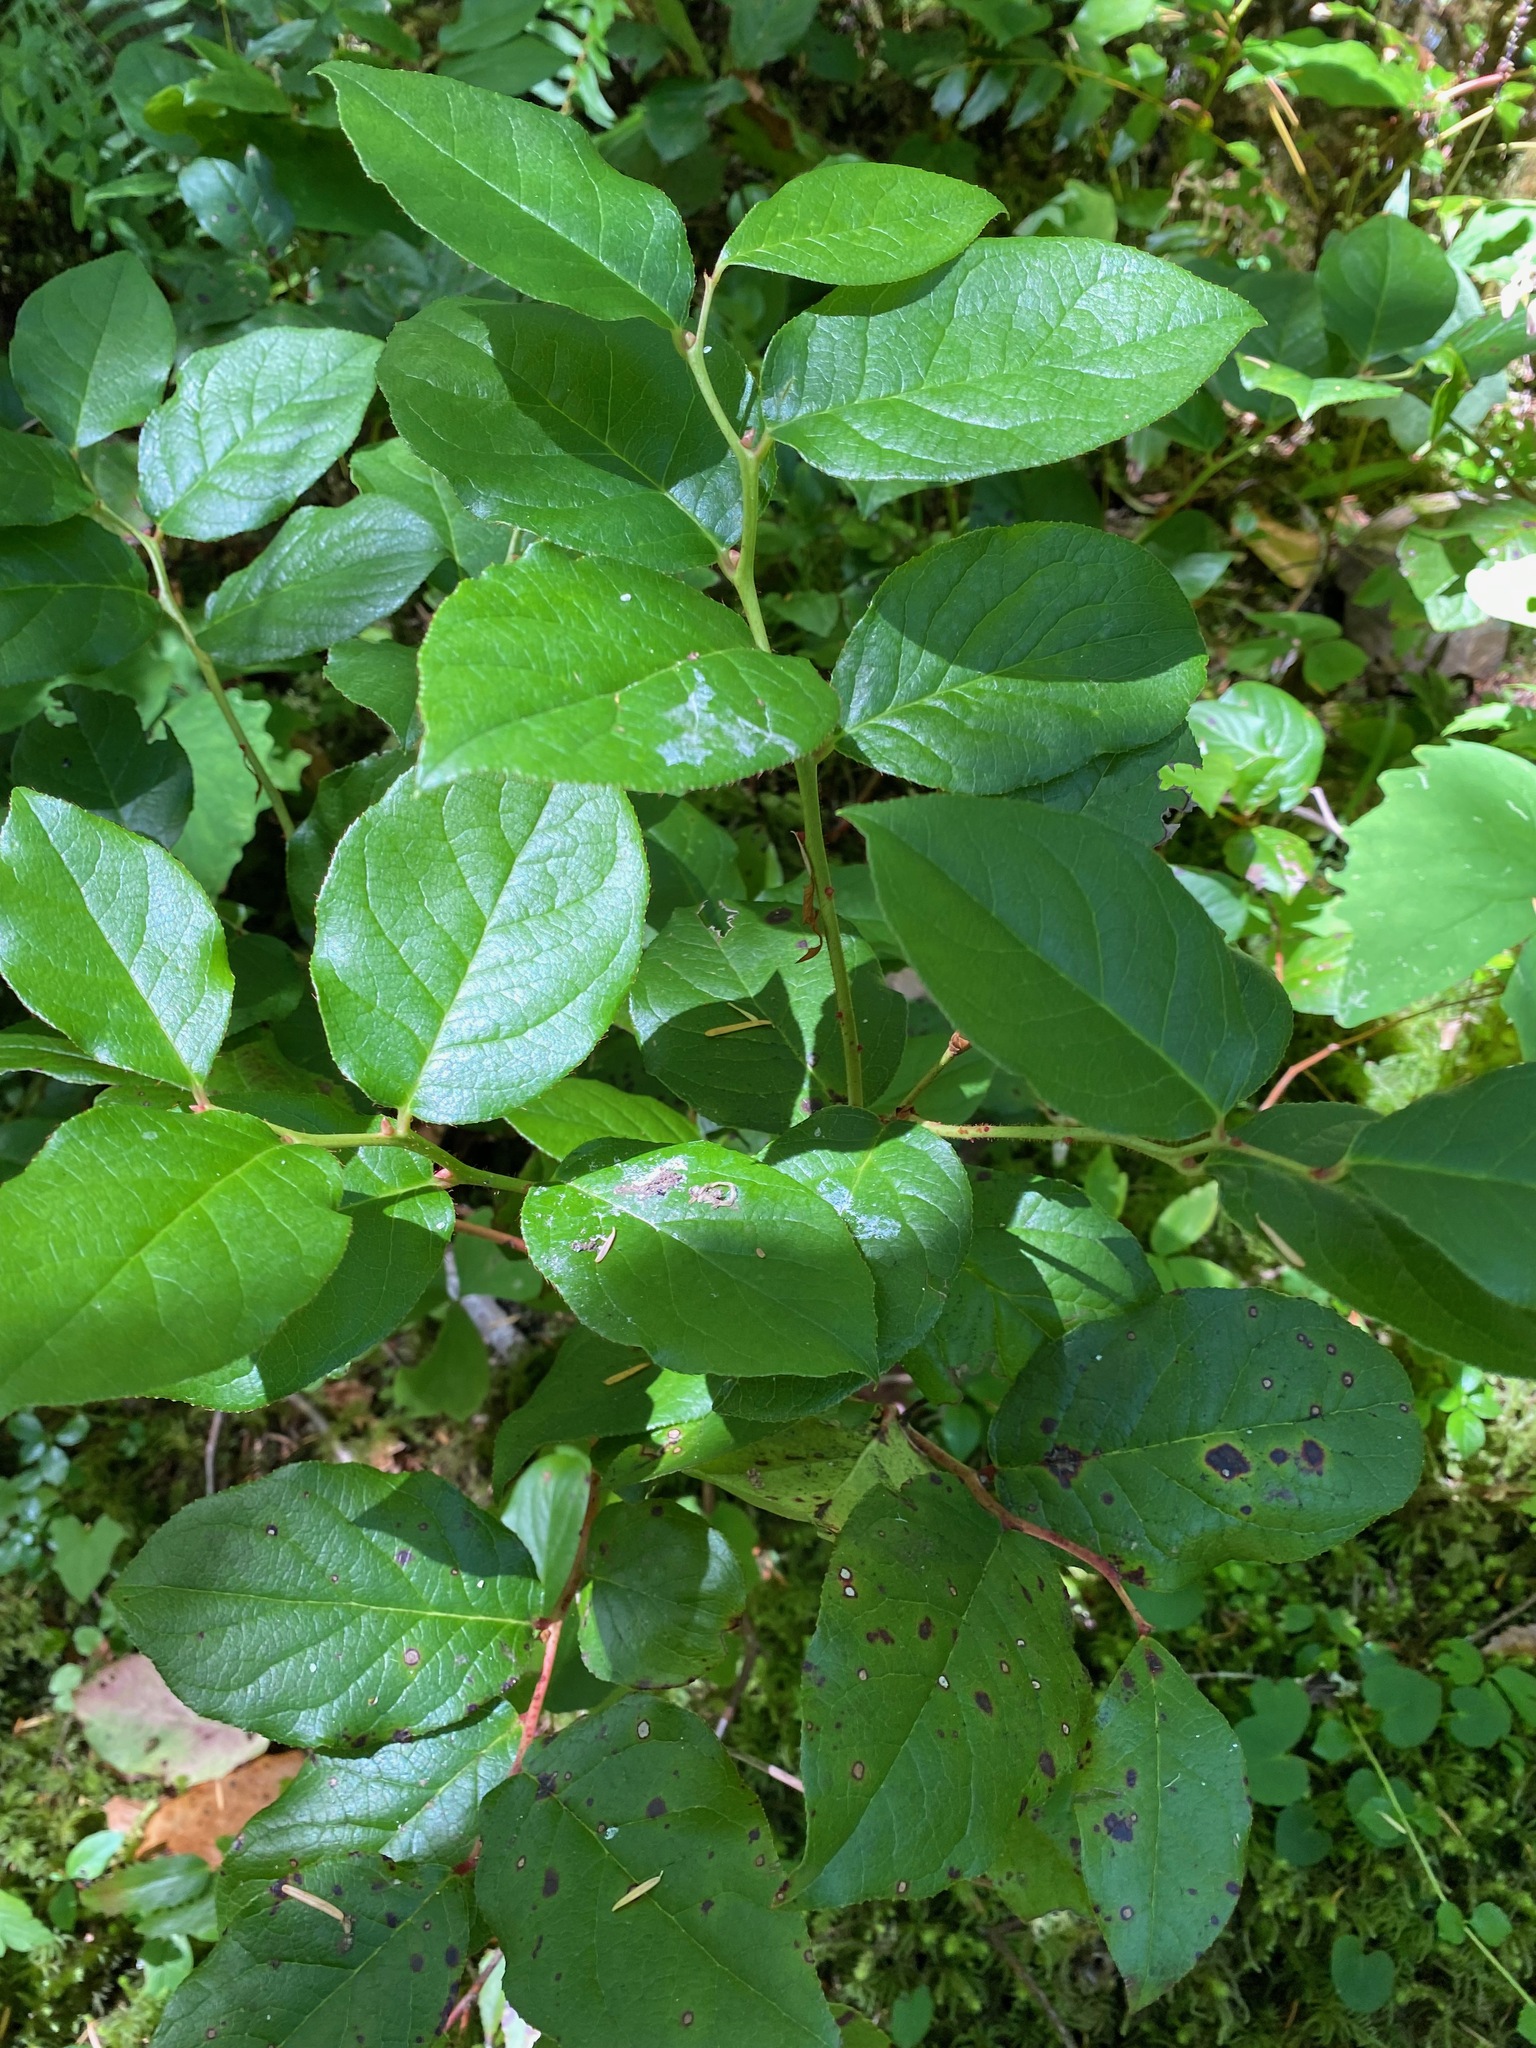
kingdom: Plantae
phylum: Tracheophyta
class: Magnoliopsida
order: Ericales
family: Ericaceae
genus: Gaultheria
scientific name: Gaultheria shallon
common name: Shallon
